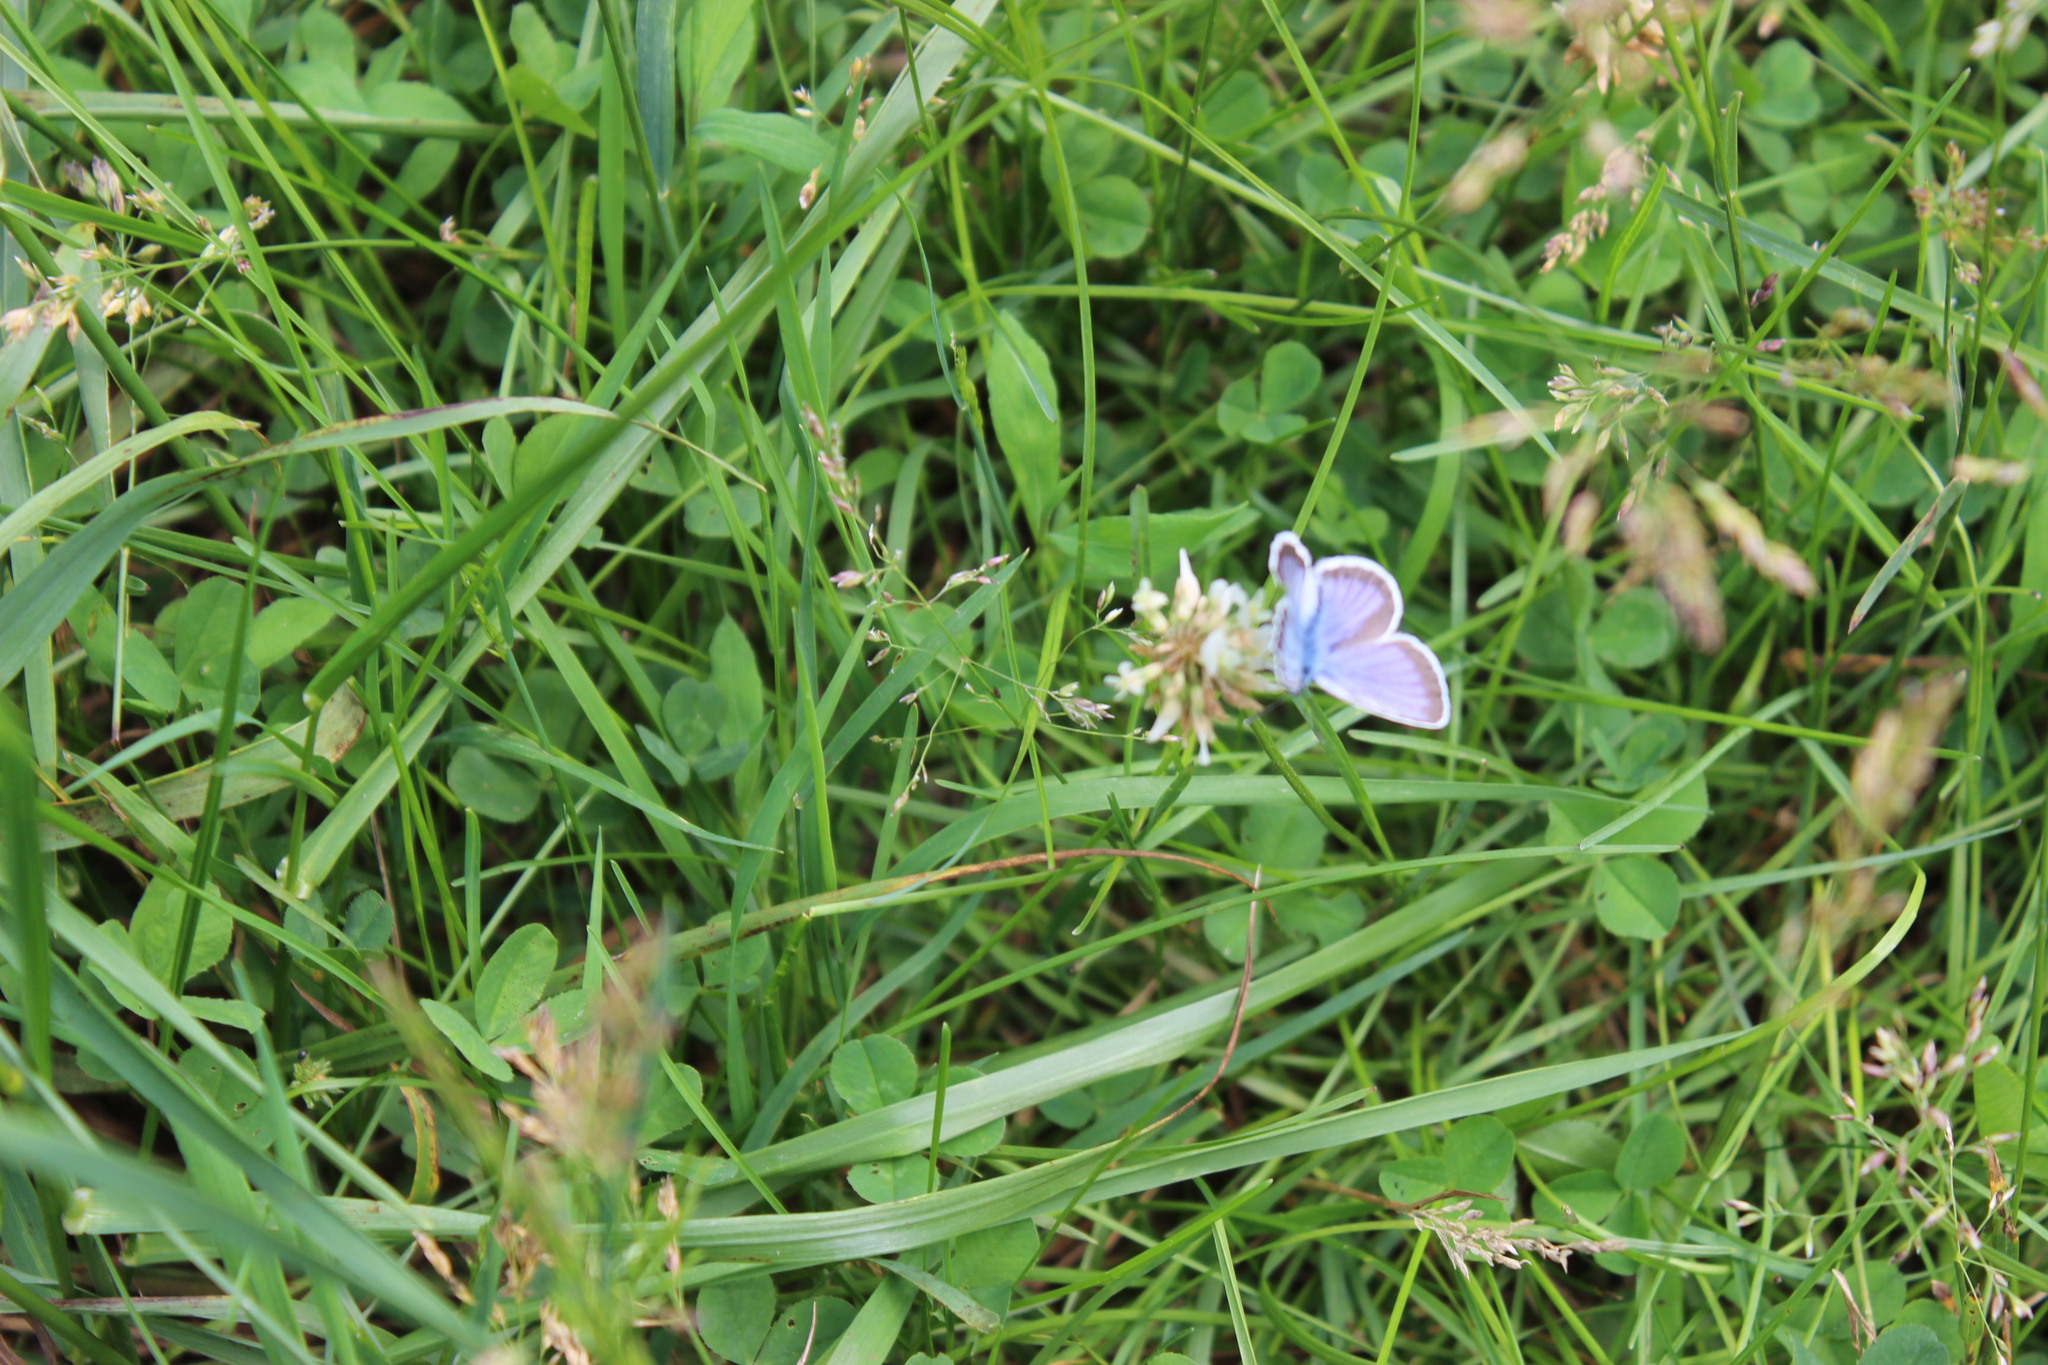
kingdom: Animalia
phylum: Arthropoda
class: Insecta
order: Lepidoptera
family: Lycaenidae
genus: Plebejus
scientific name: Plebejus argus
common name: Silver-studded blue
